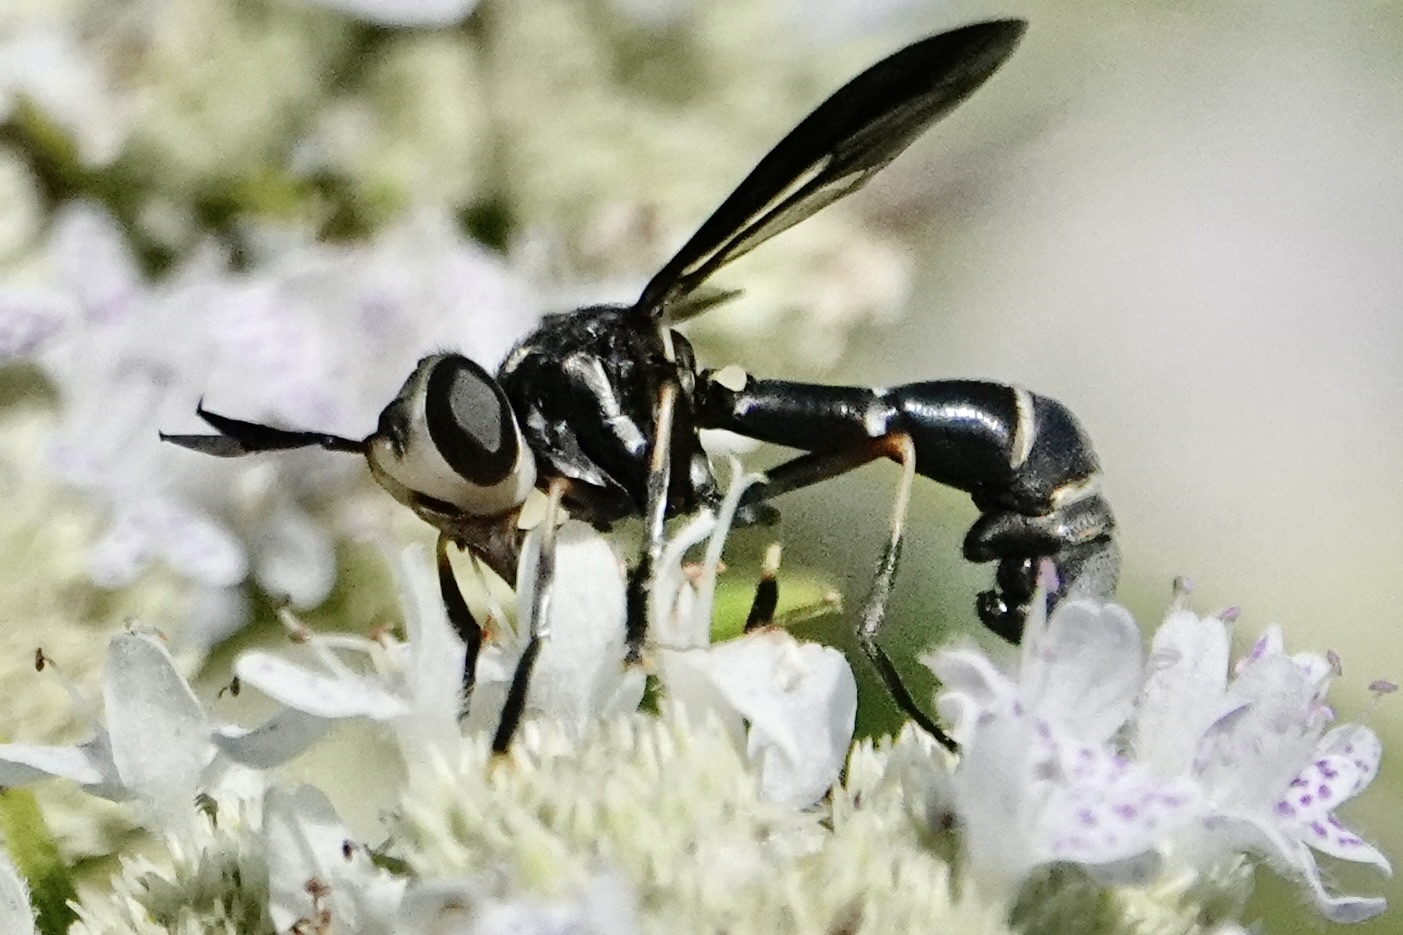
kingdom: Animalia
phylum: Arthropoda
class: Insecta
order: Diptera
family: Conopidae
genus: Physoconops
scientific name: Physoconops brachyrhynchus
